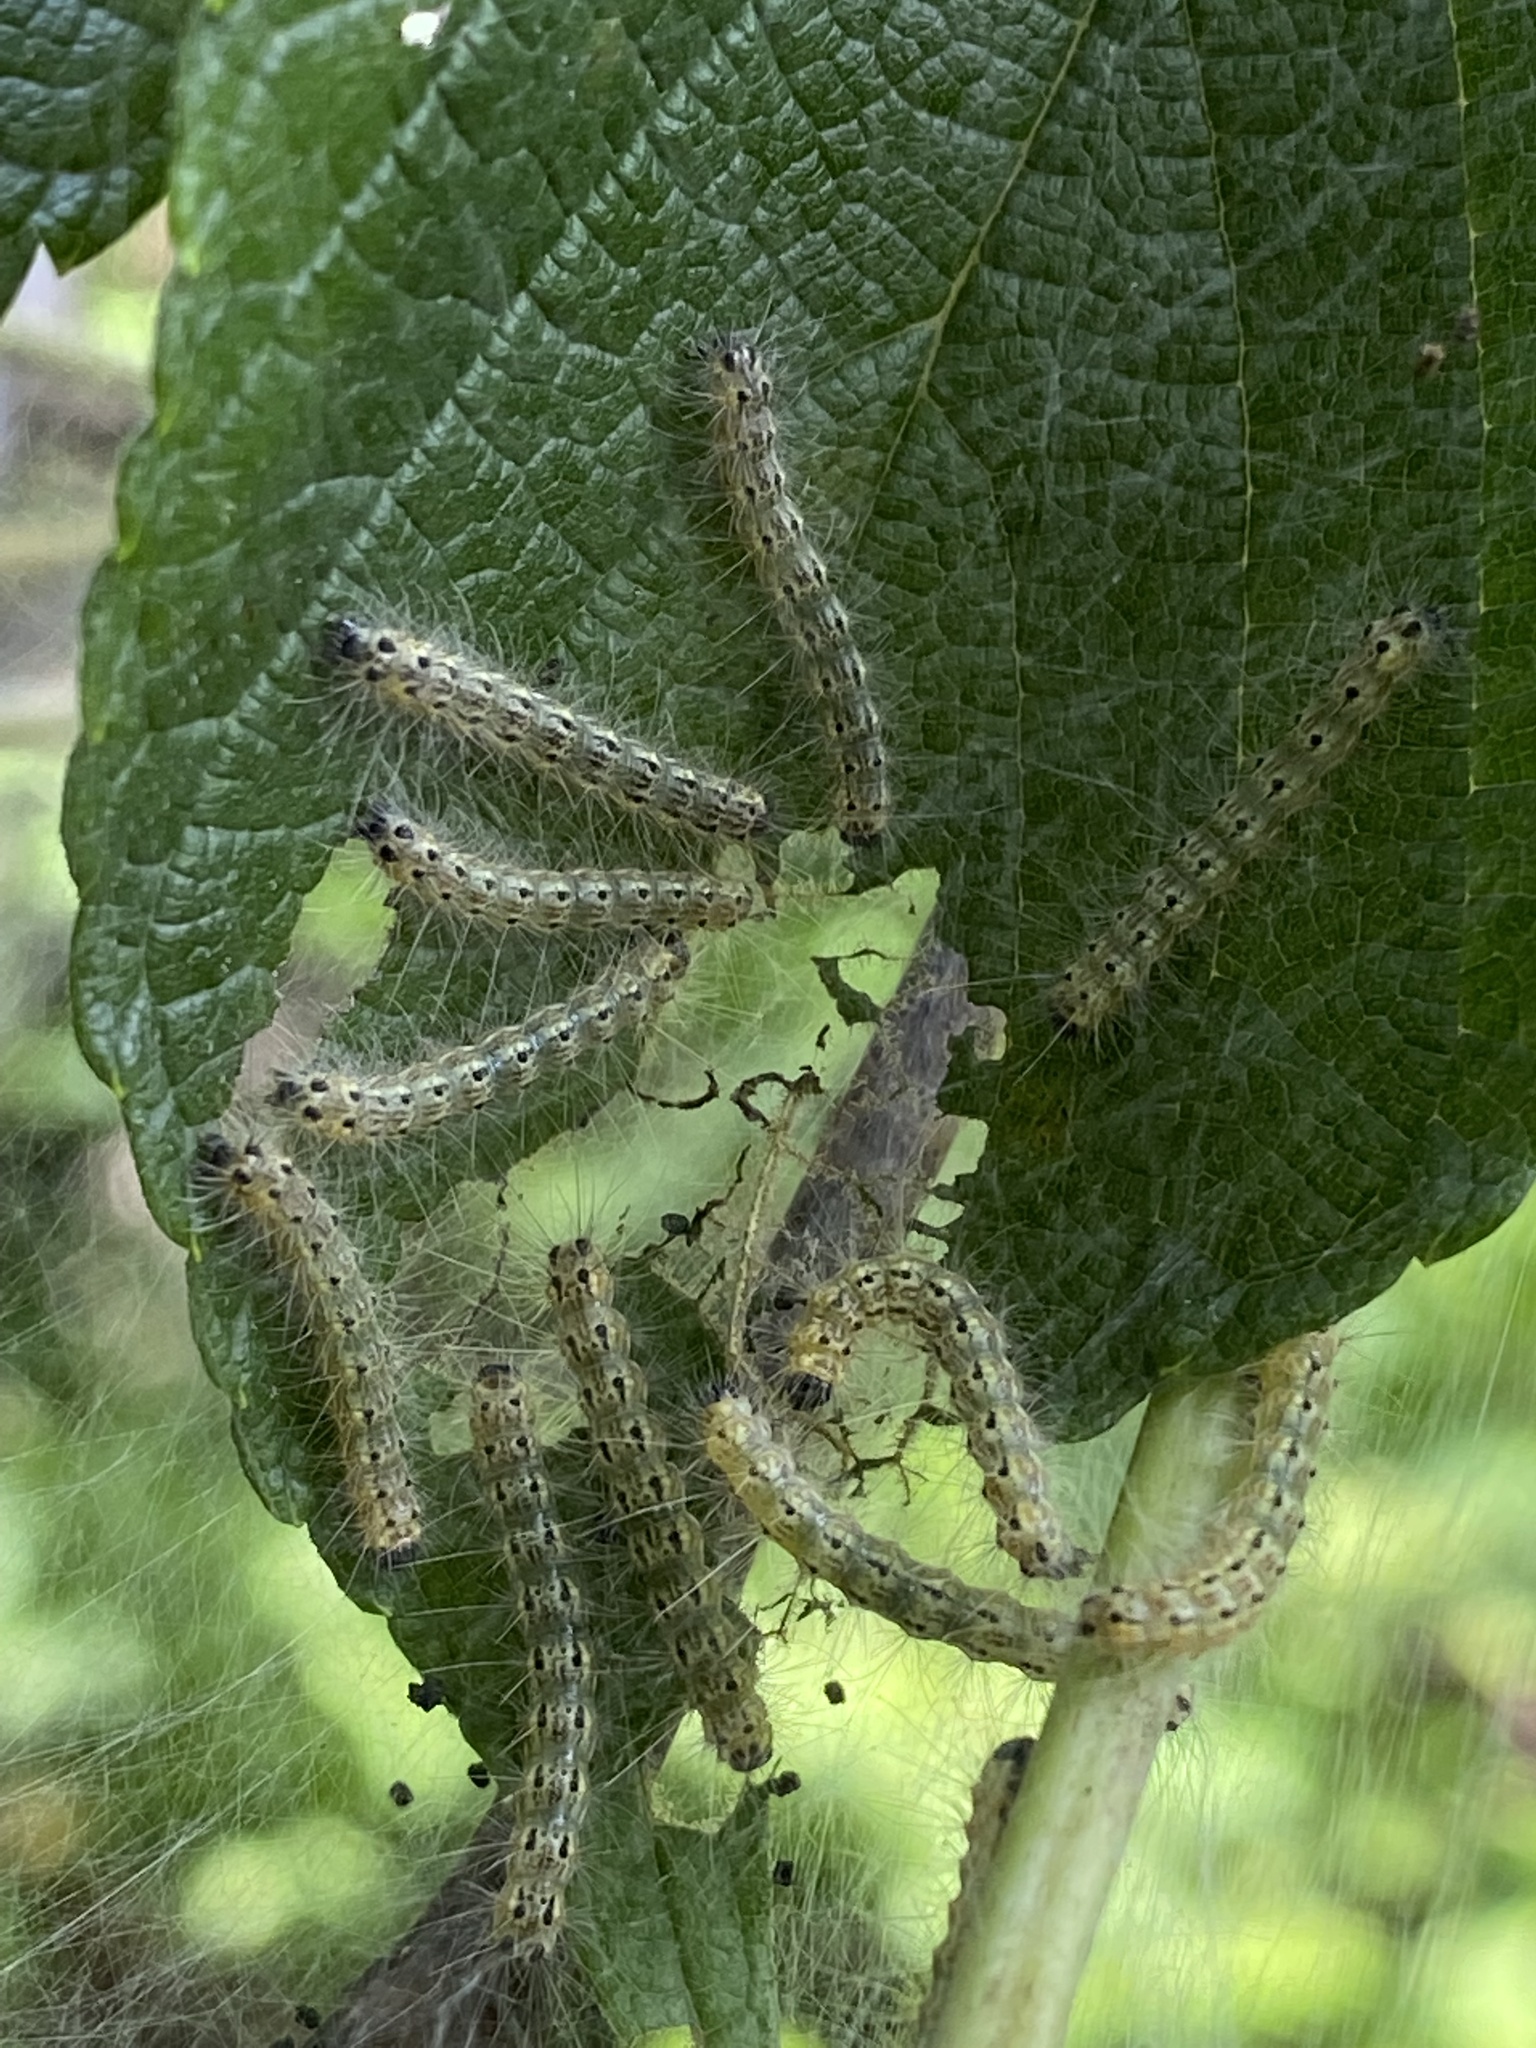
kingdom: Animalia
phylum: Arthropoda
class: Insecta
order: Lepidoptera
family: Erebidae
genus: Hyphantria
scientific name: Hyphantria cunea
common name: American white moth
